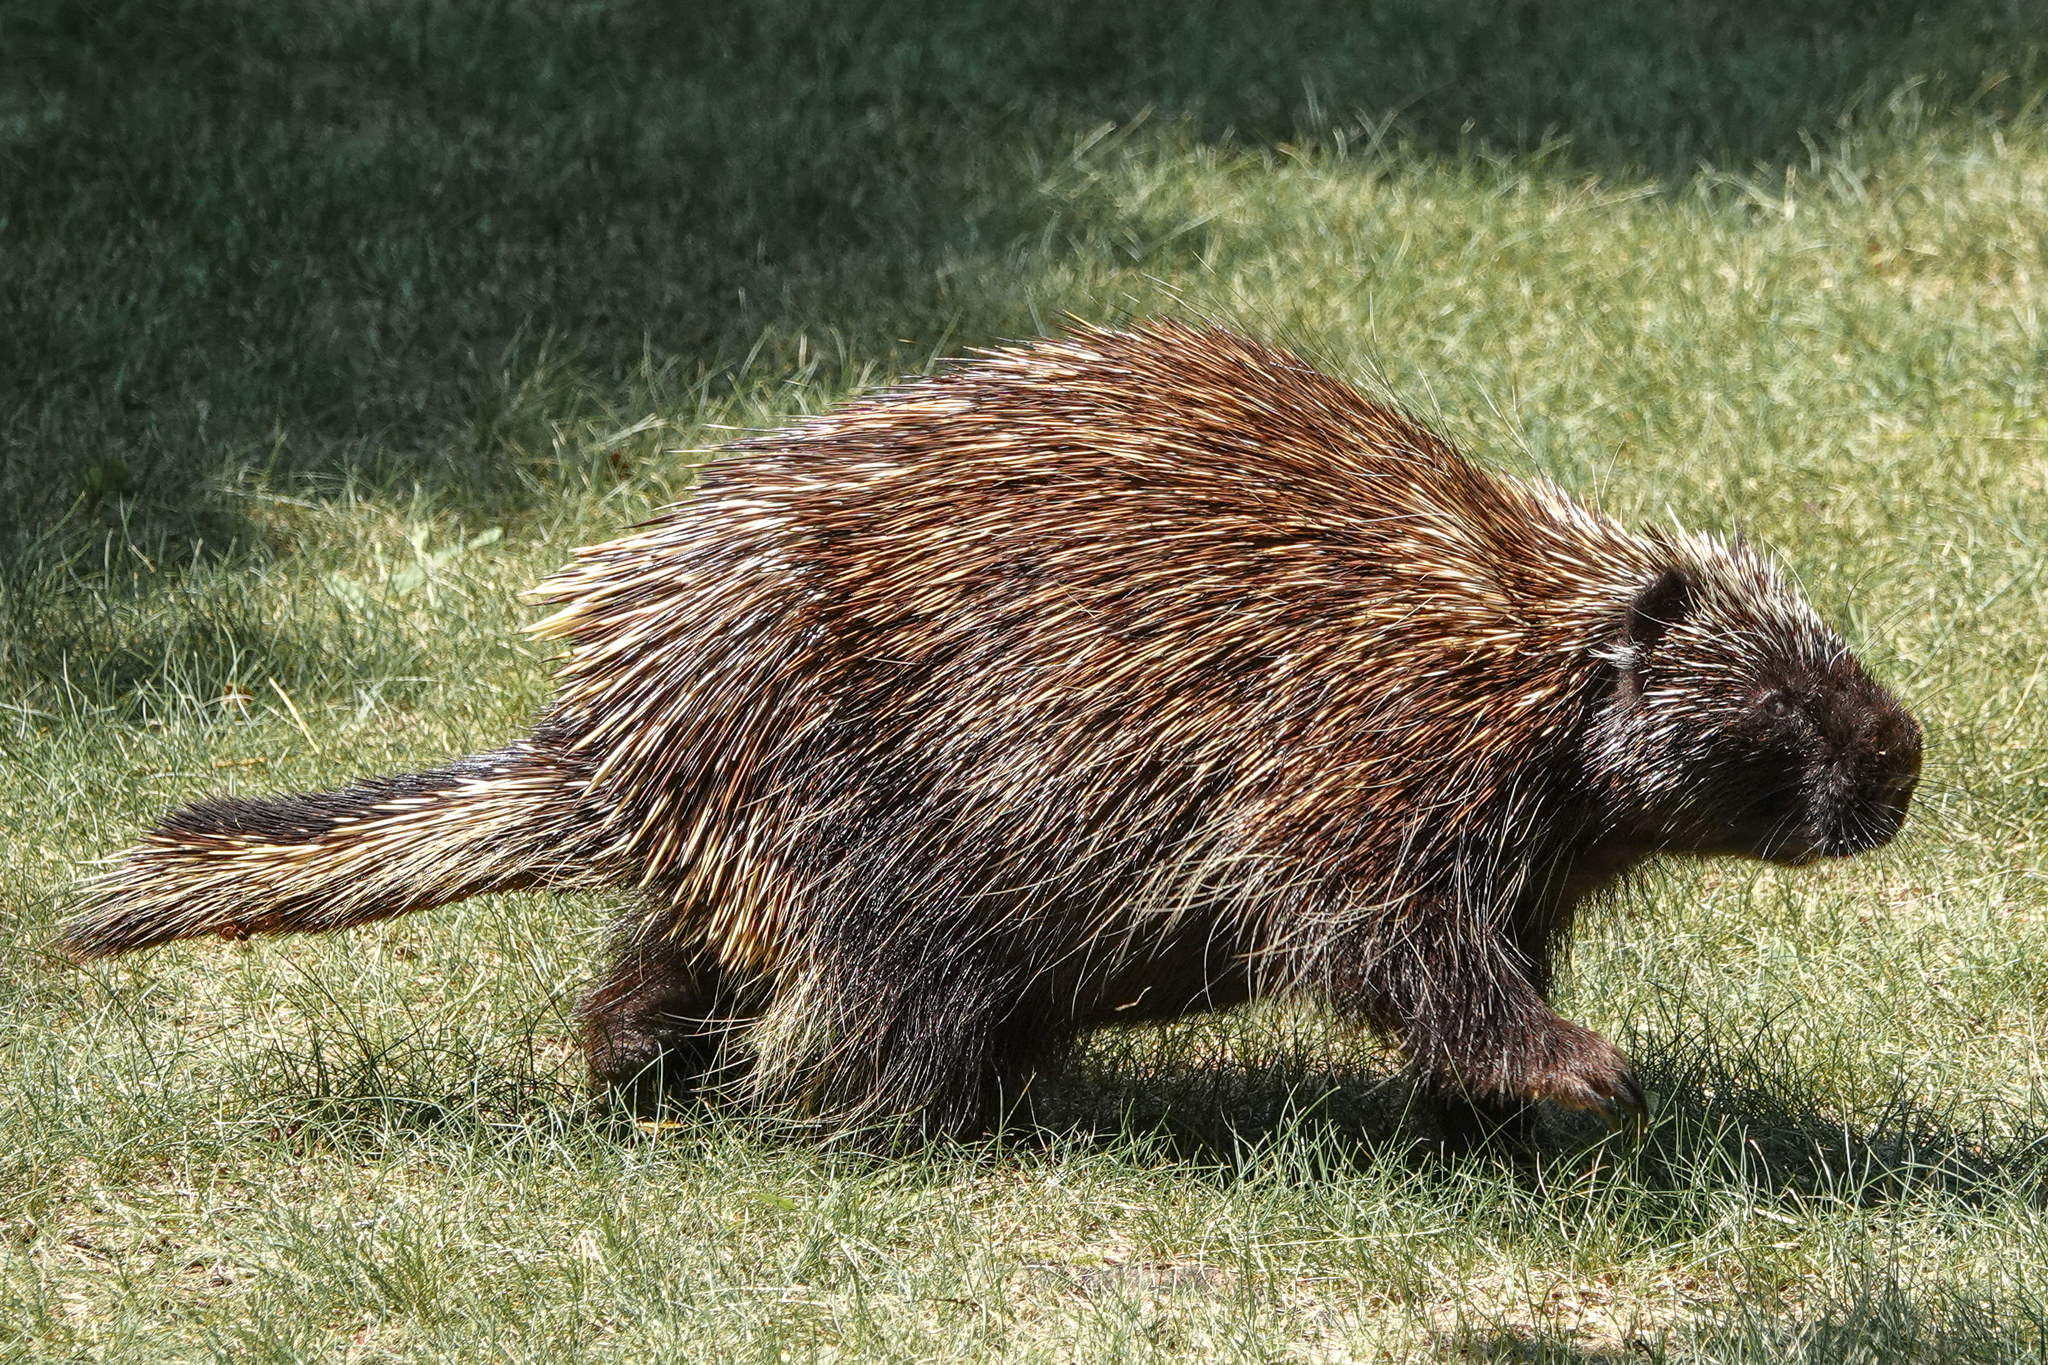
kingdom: Animalia
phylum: Chordata
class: Mammalia
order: Rodentia
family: Erethizontidae
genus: Erethizon
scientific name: Erethizon dorsatus
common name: North american porcupine
